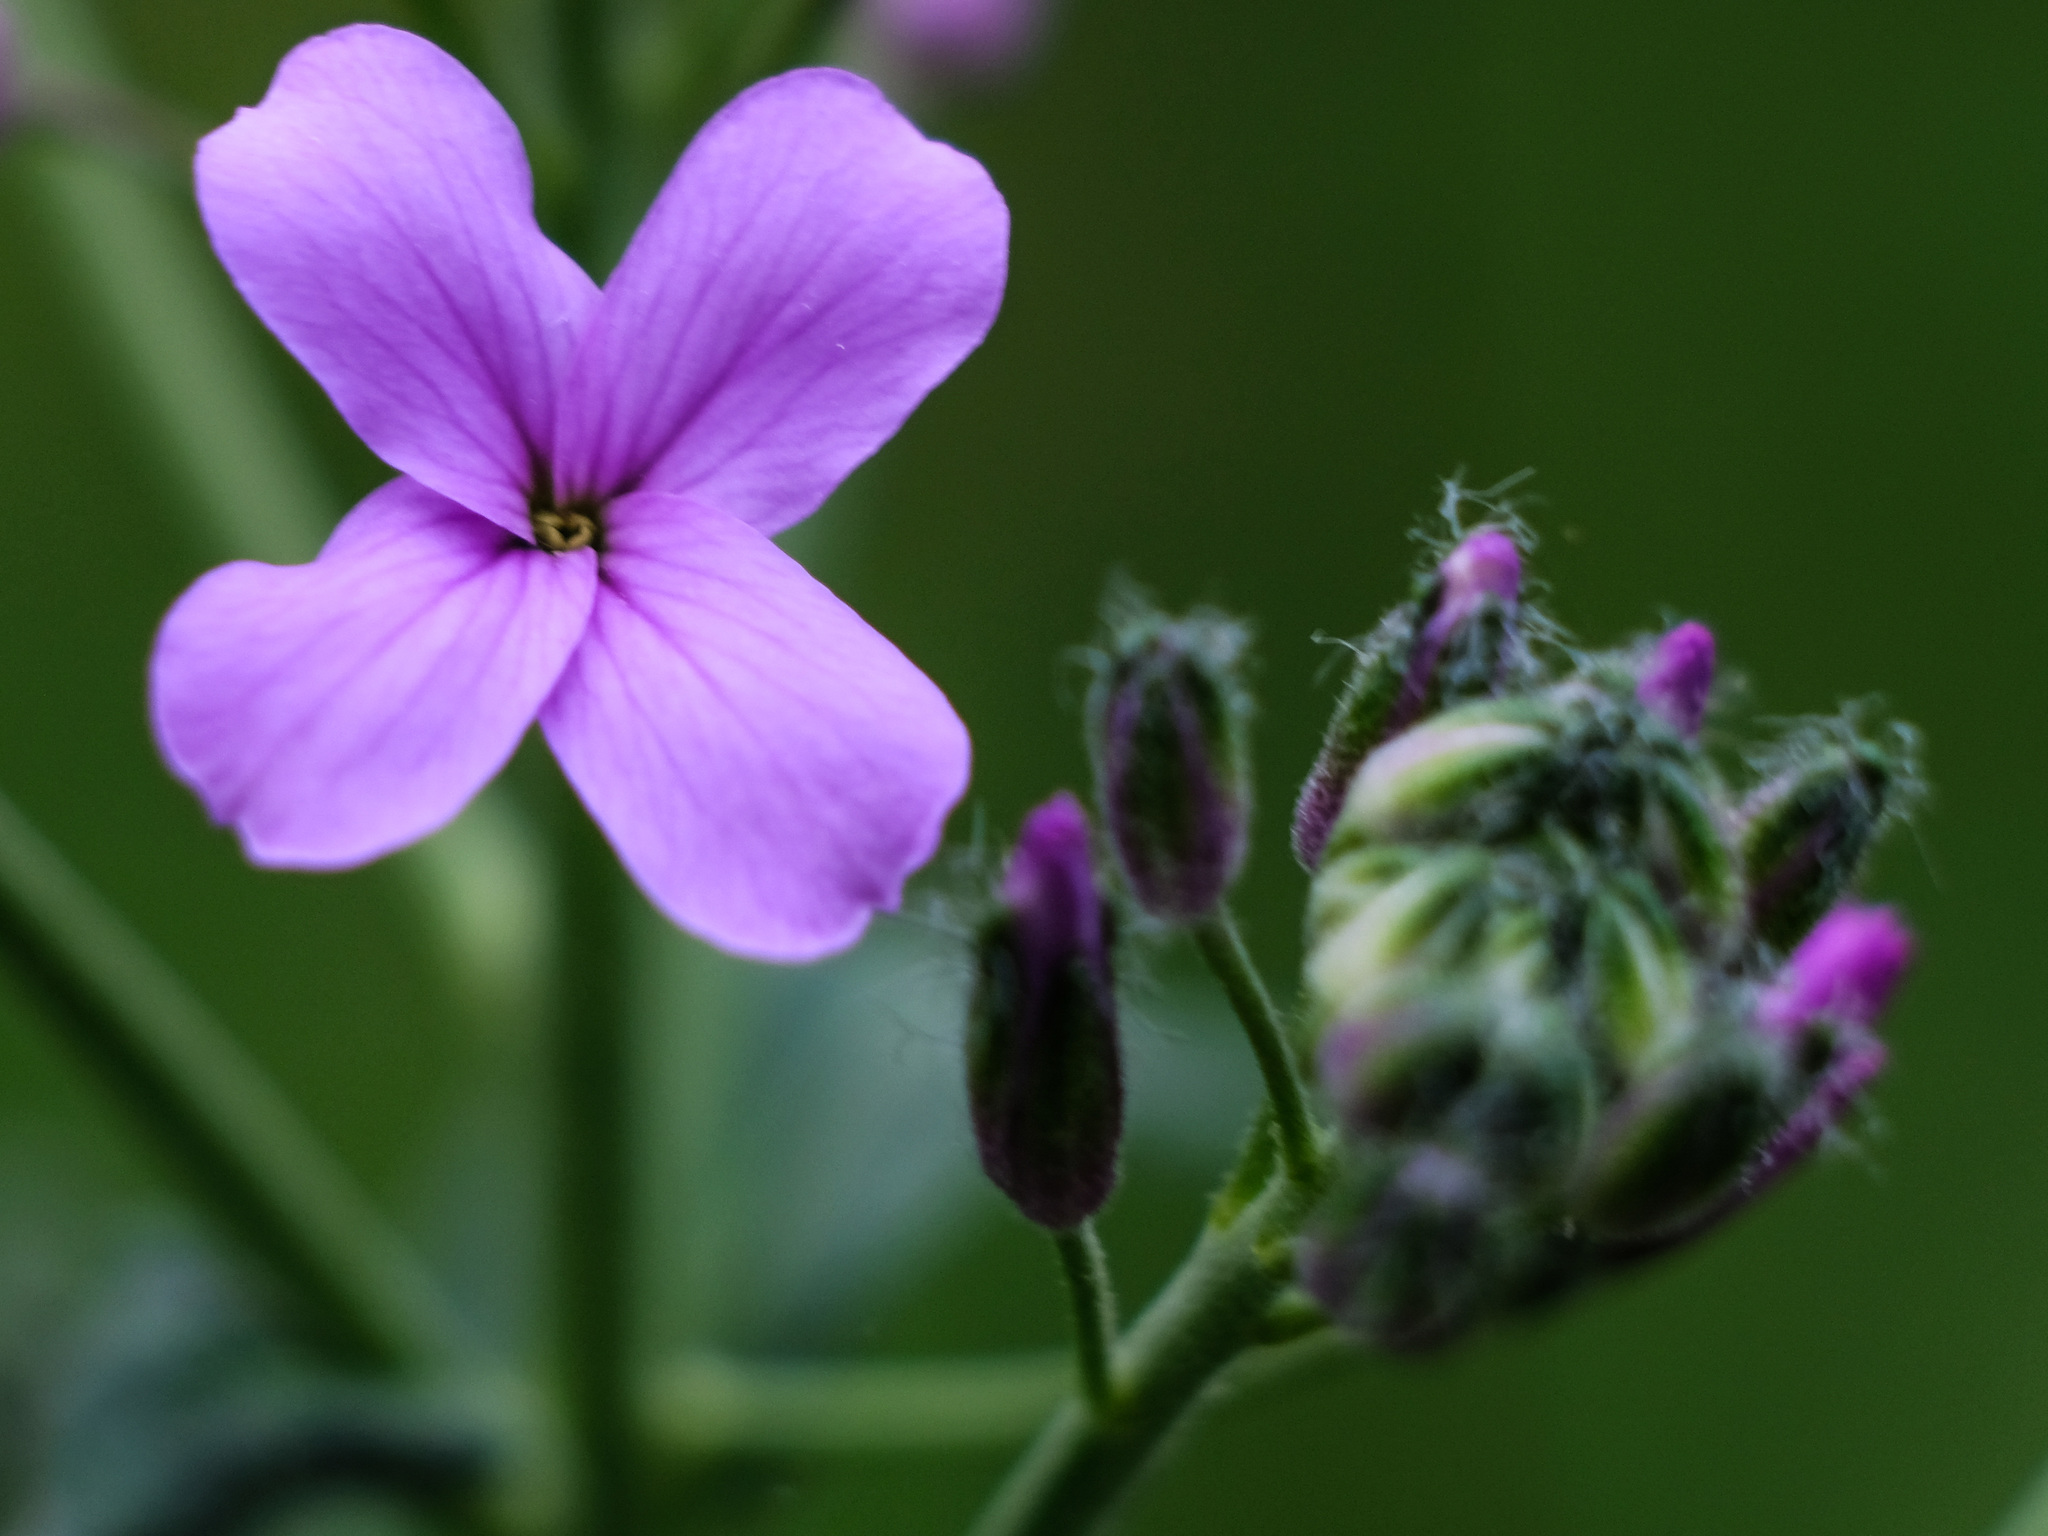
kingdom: Plantae
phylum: Tracheophyta
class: Magnoliopsida
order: Brassicales
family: Brassicaceae
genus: Hesperis
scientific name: Hesperis matronalis
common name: Dame's-violet
